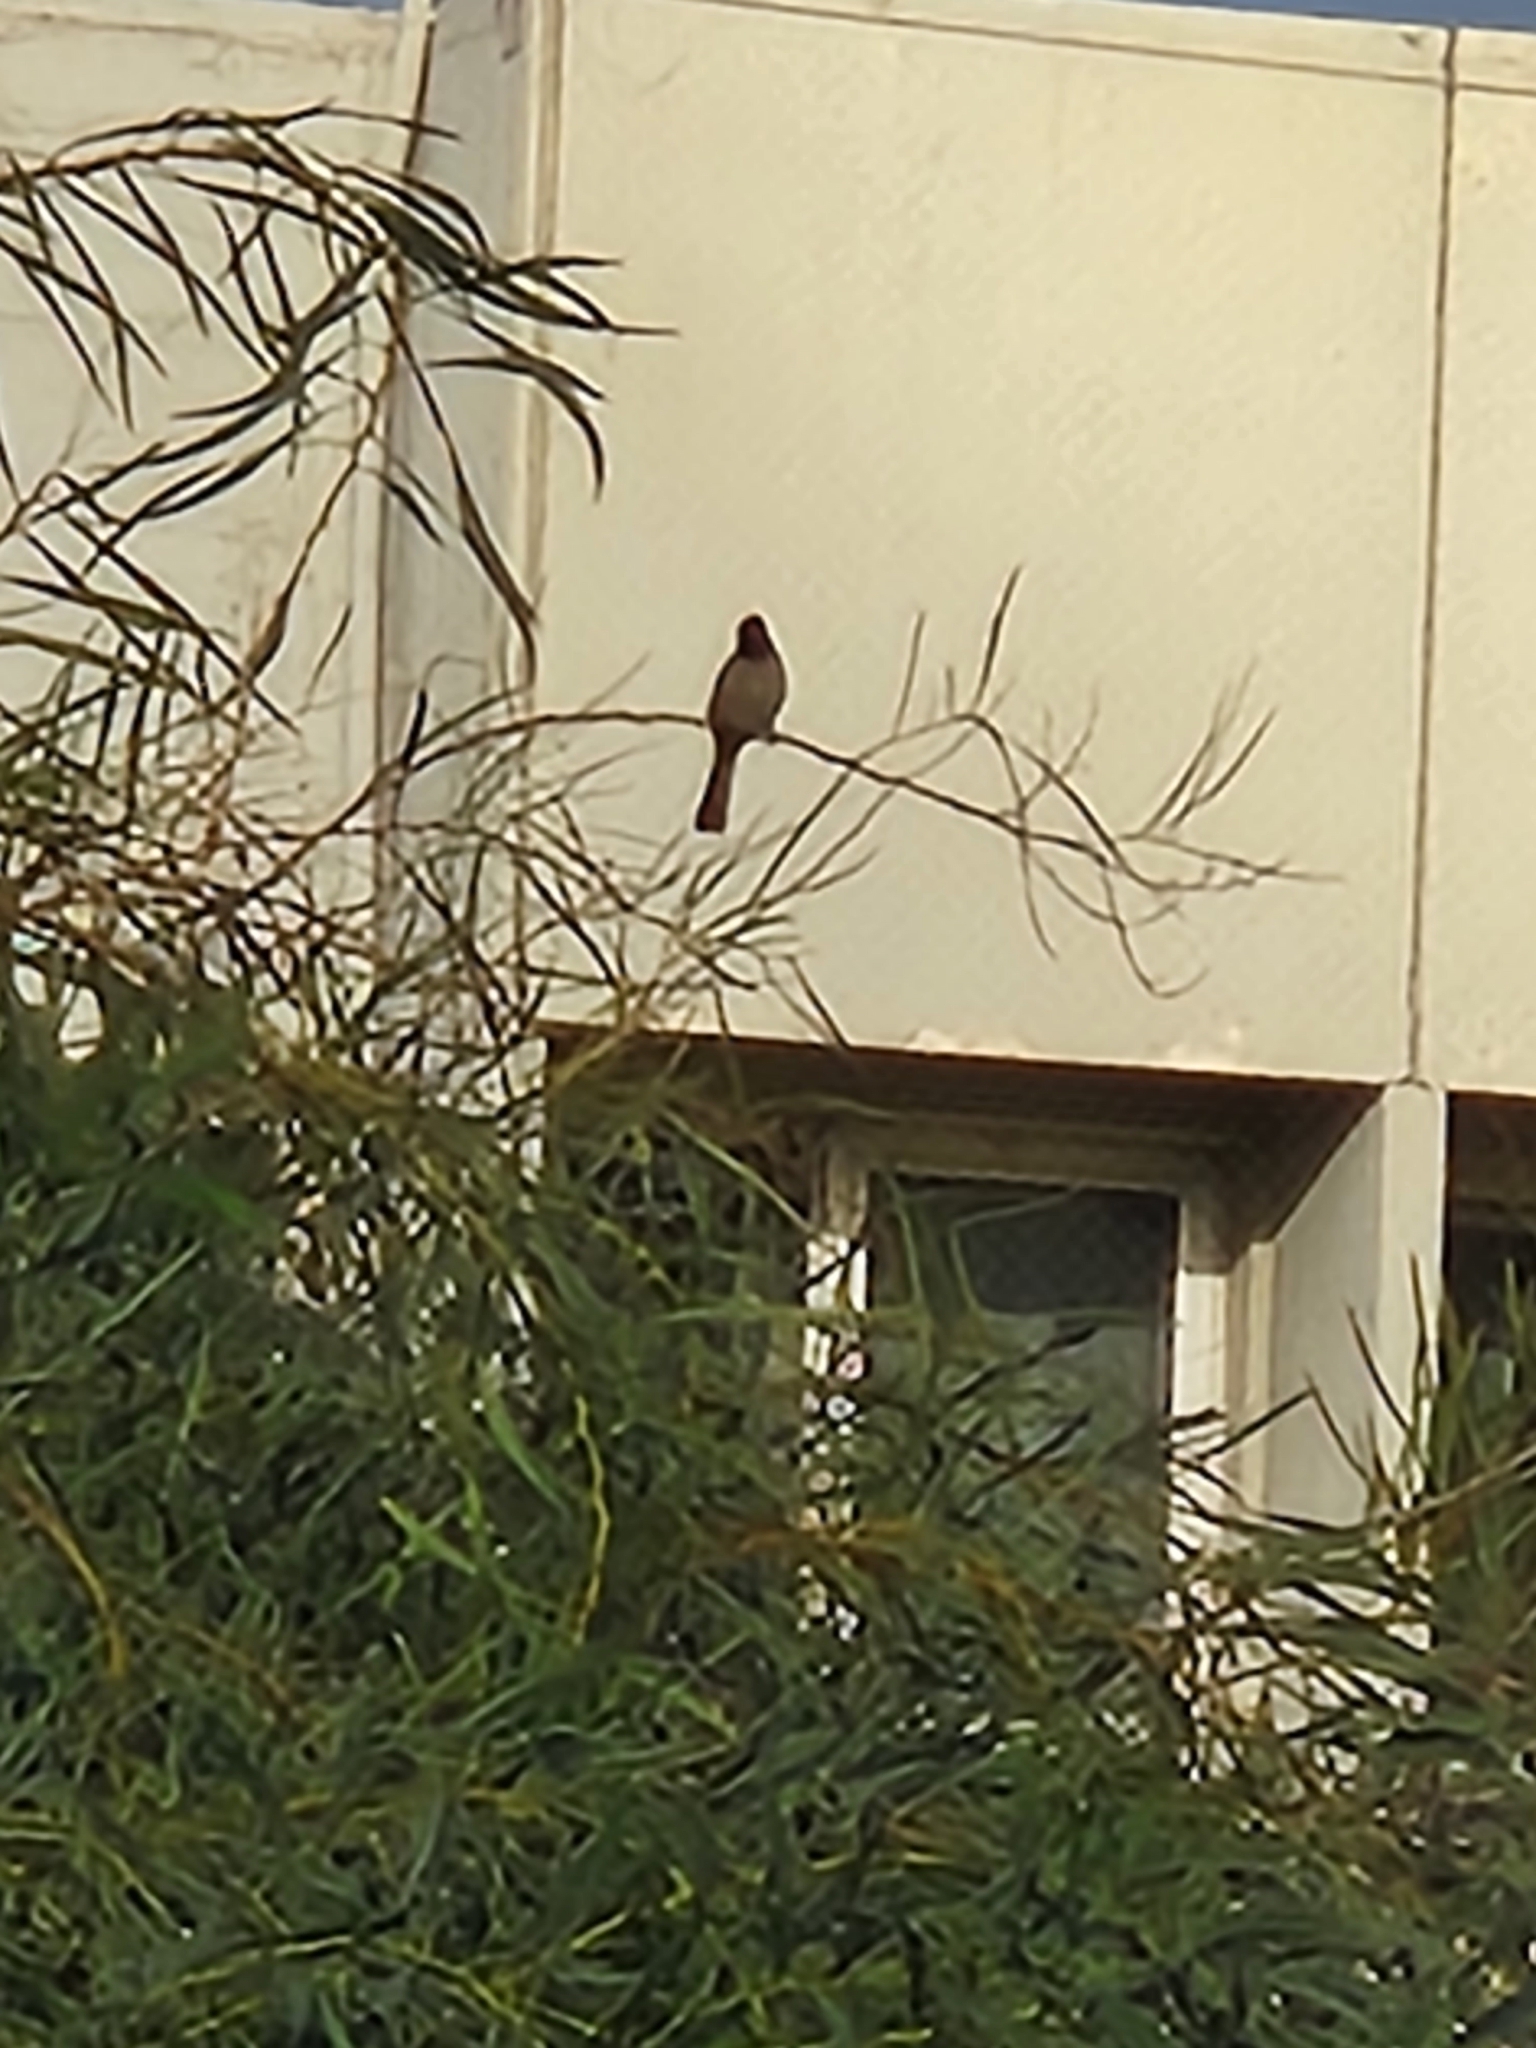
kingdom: Animalia
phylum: Chordata
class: Aves
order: Passeriformes
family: Pycnonotidae
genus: Pycnonotus
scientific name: Pycnonotus xanthopygos
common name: White-spectacled bulbul
